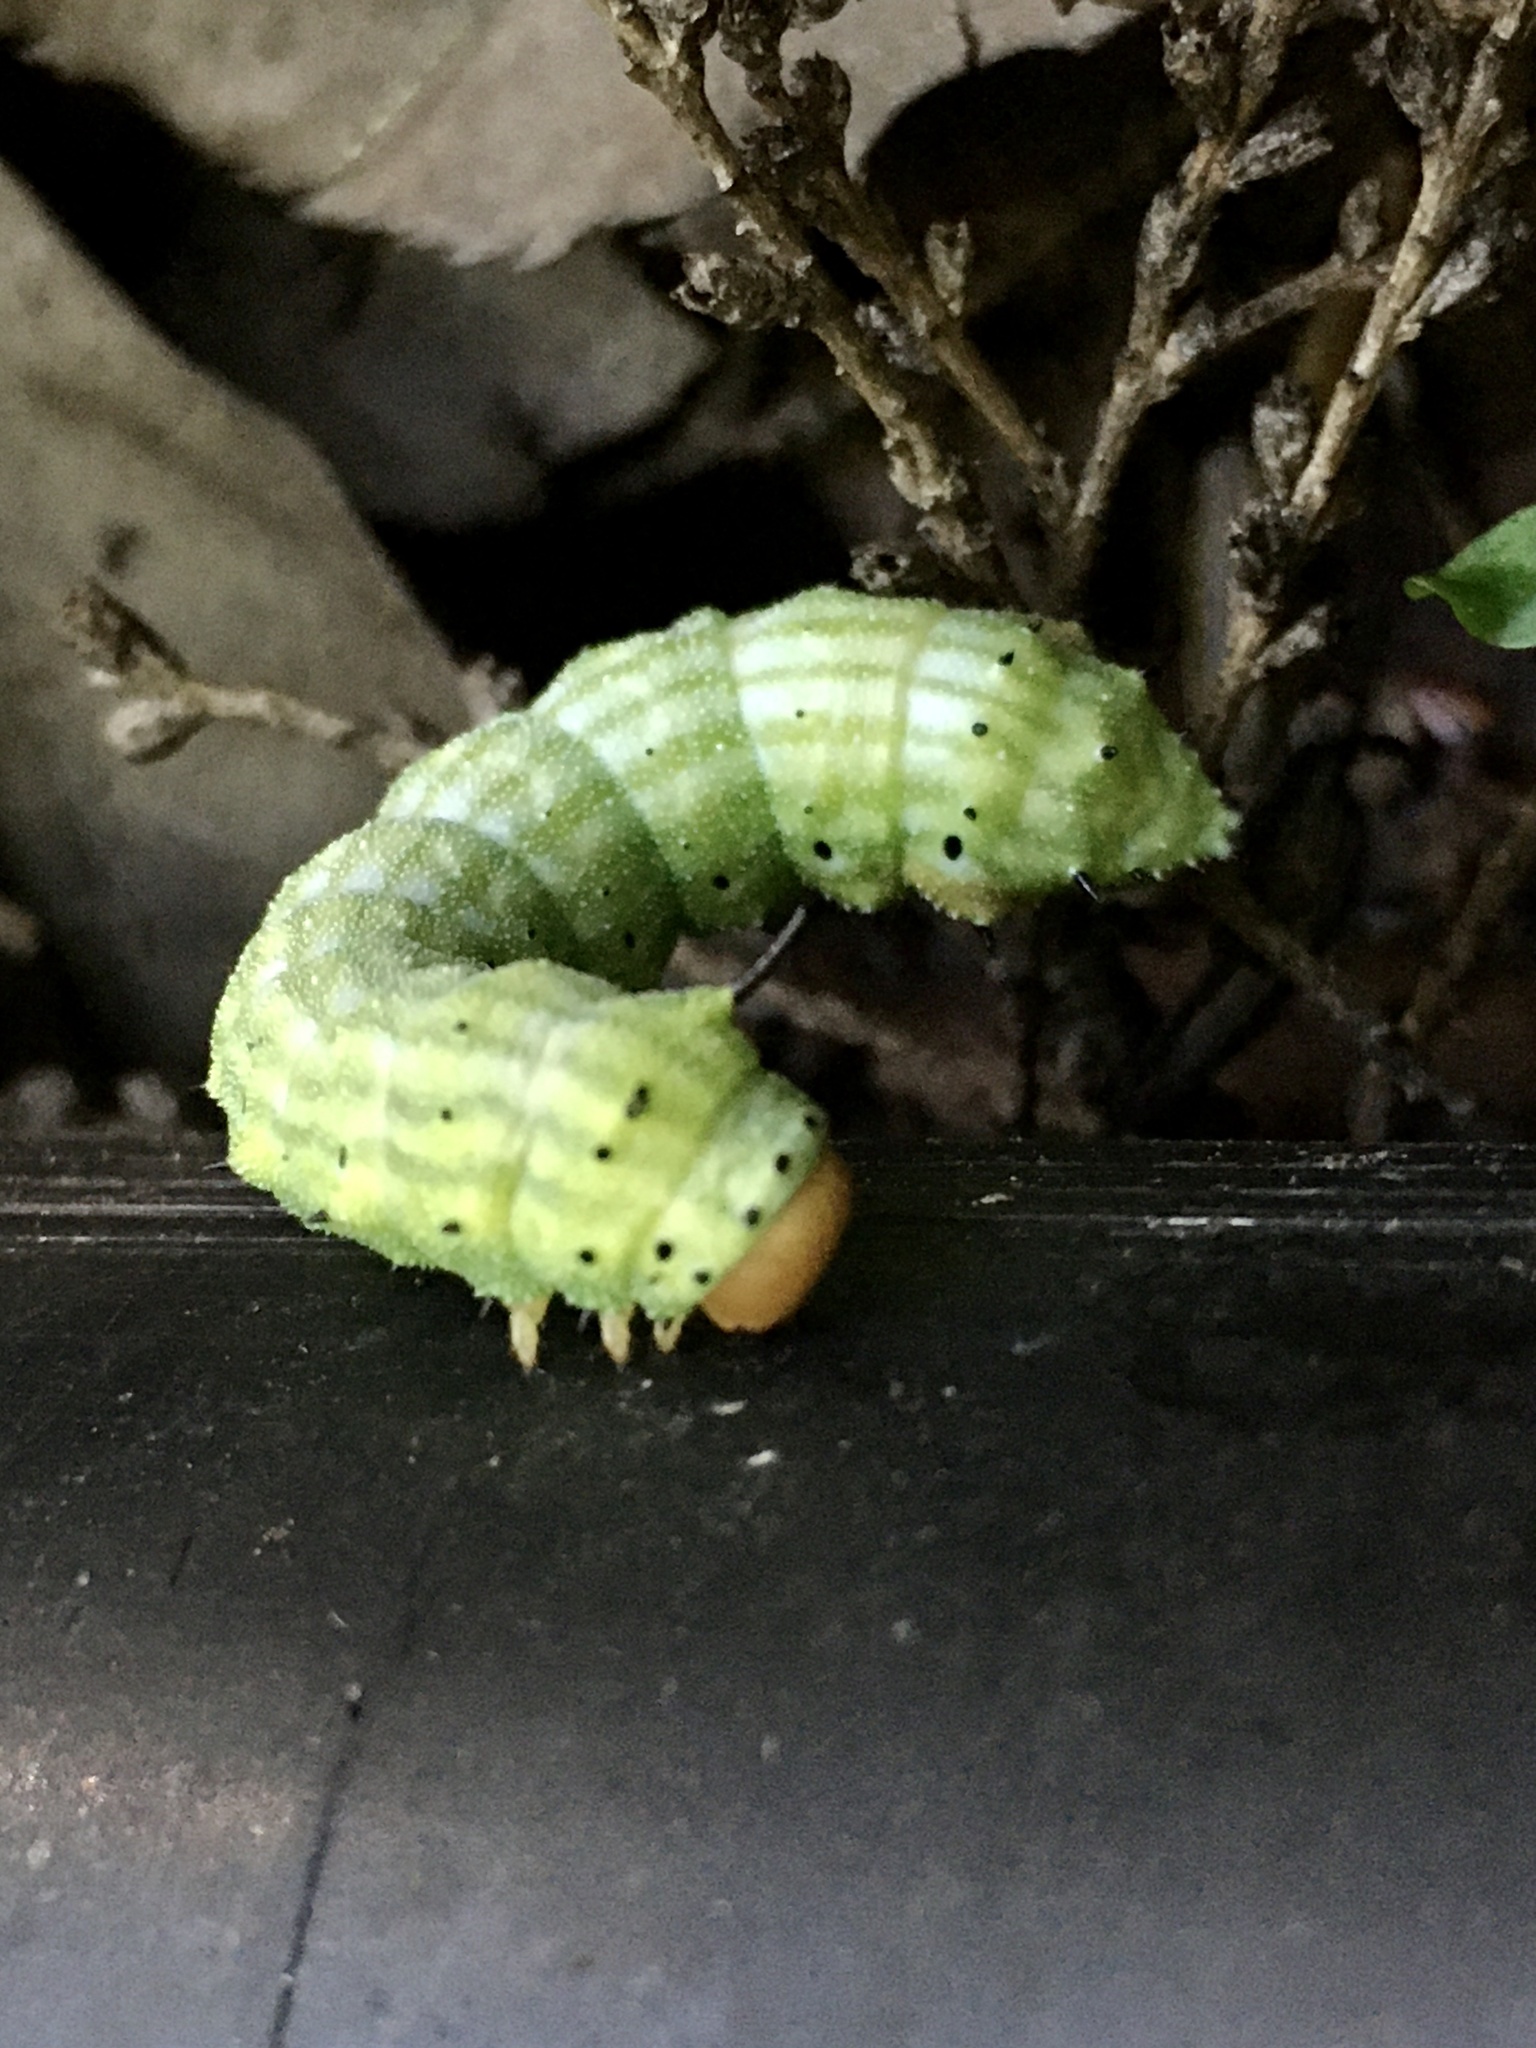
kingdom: Animalia
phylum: Arthropoda
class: Insecta
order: Lepidoptera
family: Saturniidae
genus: Dryocampa
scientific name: Dryocampa rubicunda
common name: Rosy maple moth
